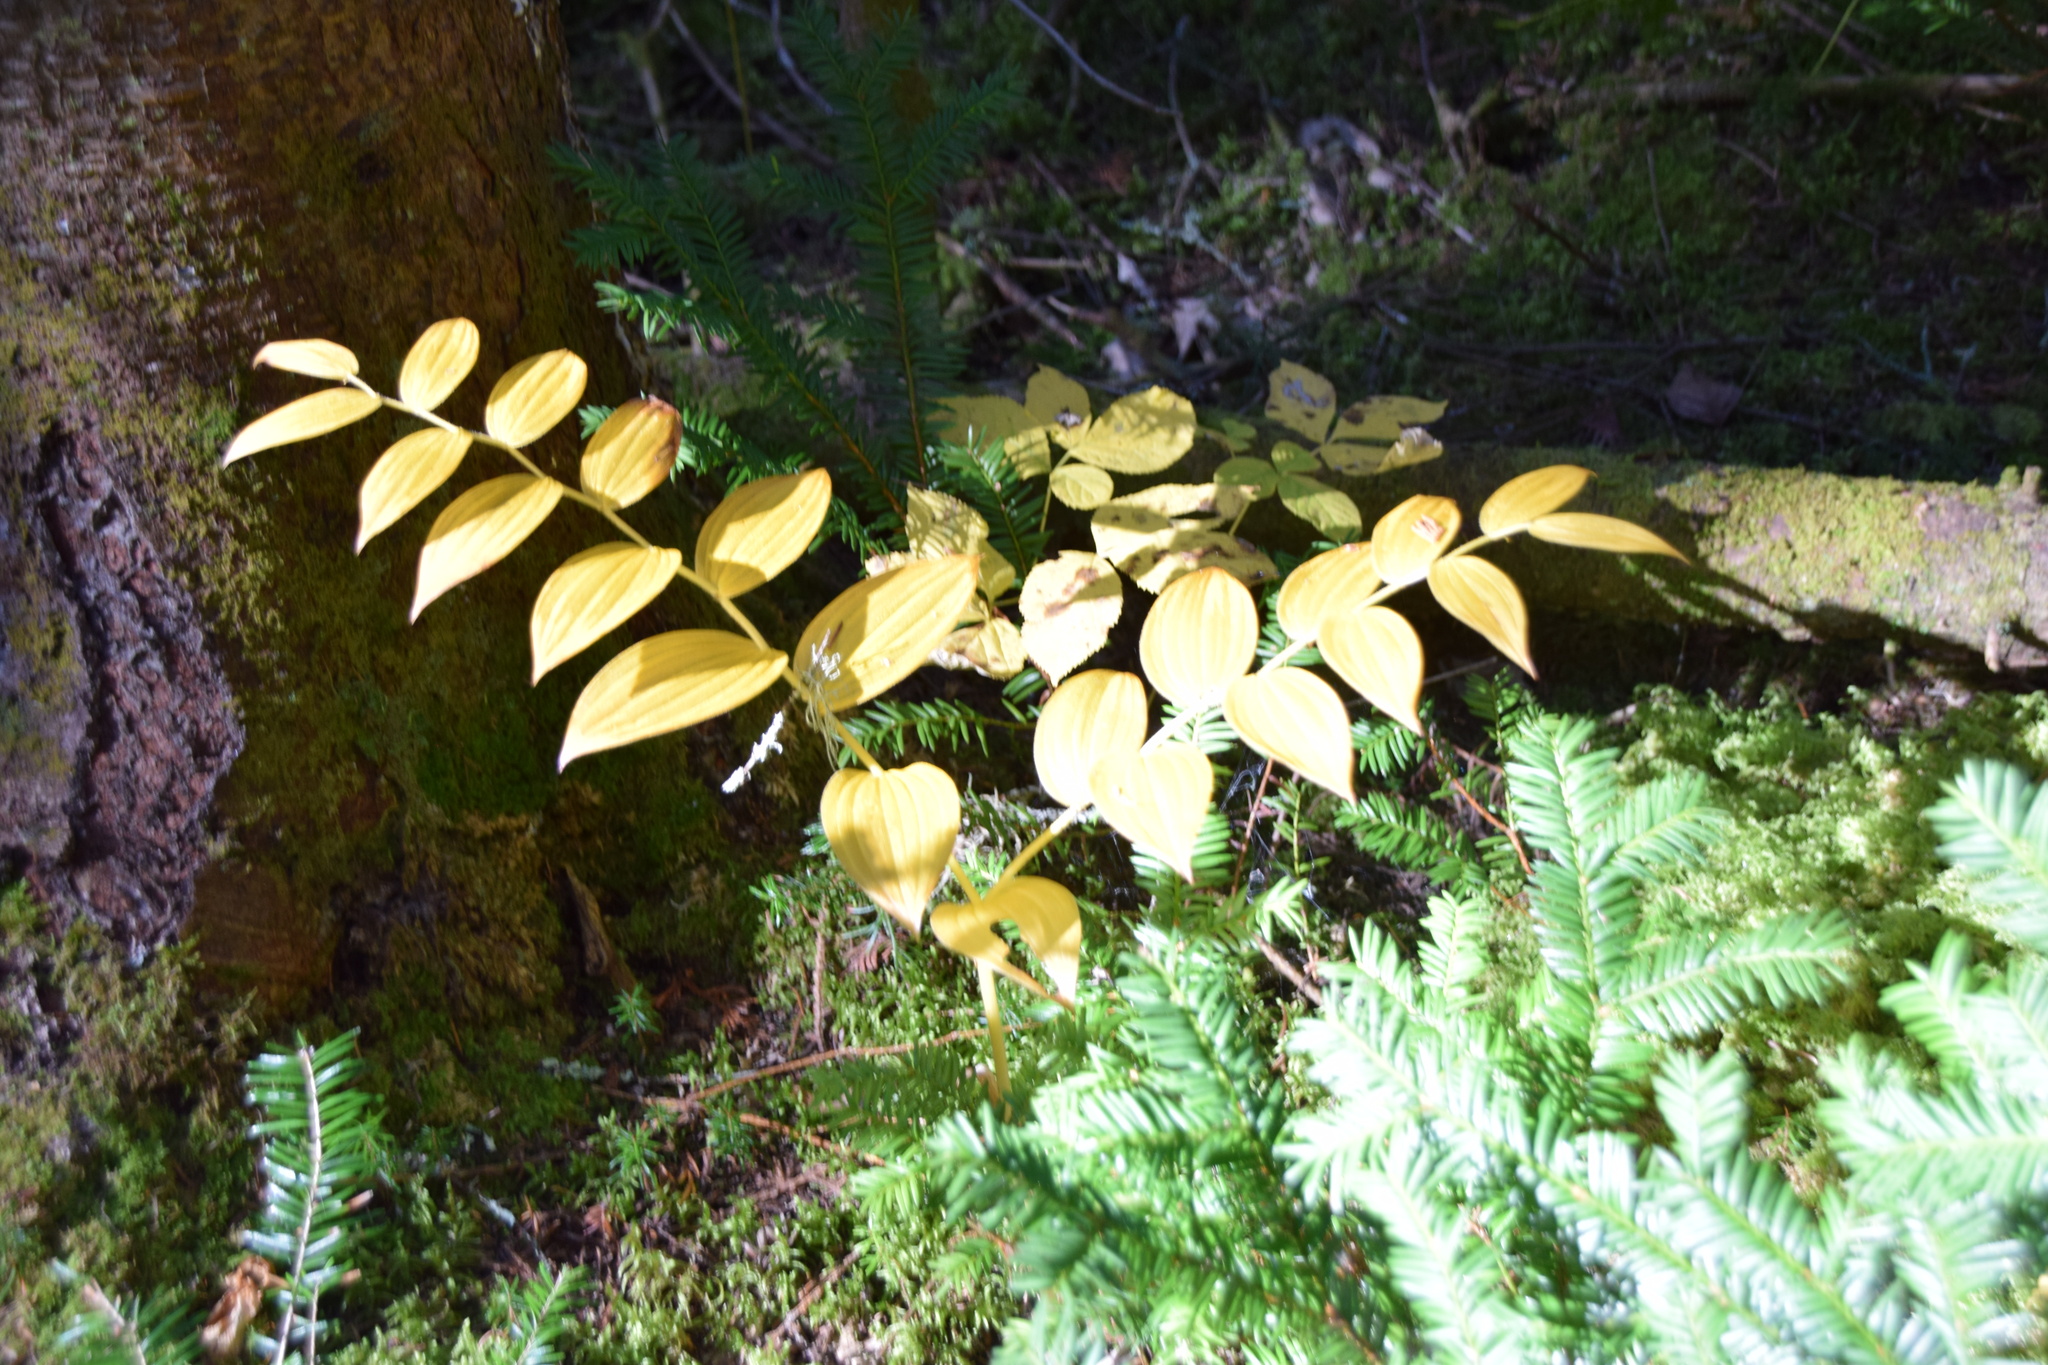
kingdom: Plantae
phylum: Tracheophyta
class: Liliopsida
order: Liliales
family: Liliaceae
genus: Streptopus
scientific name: Streptopus lanceolatus
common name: Rose mandarin
